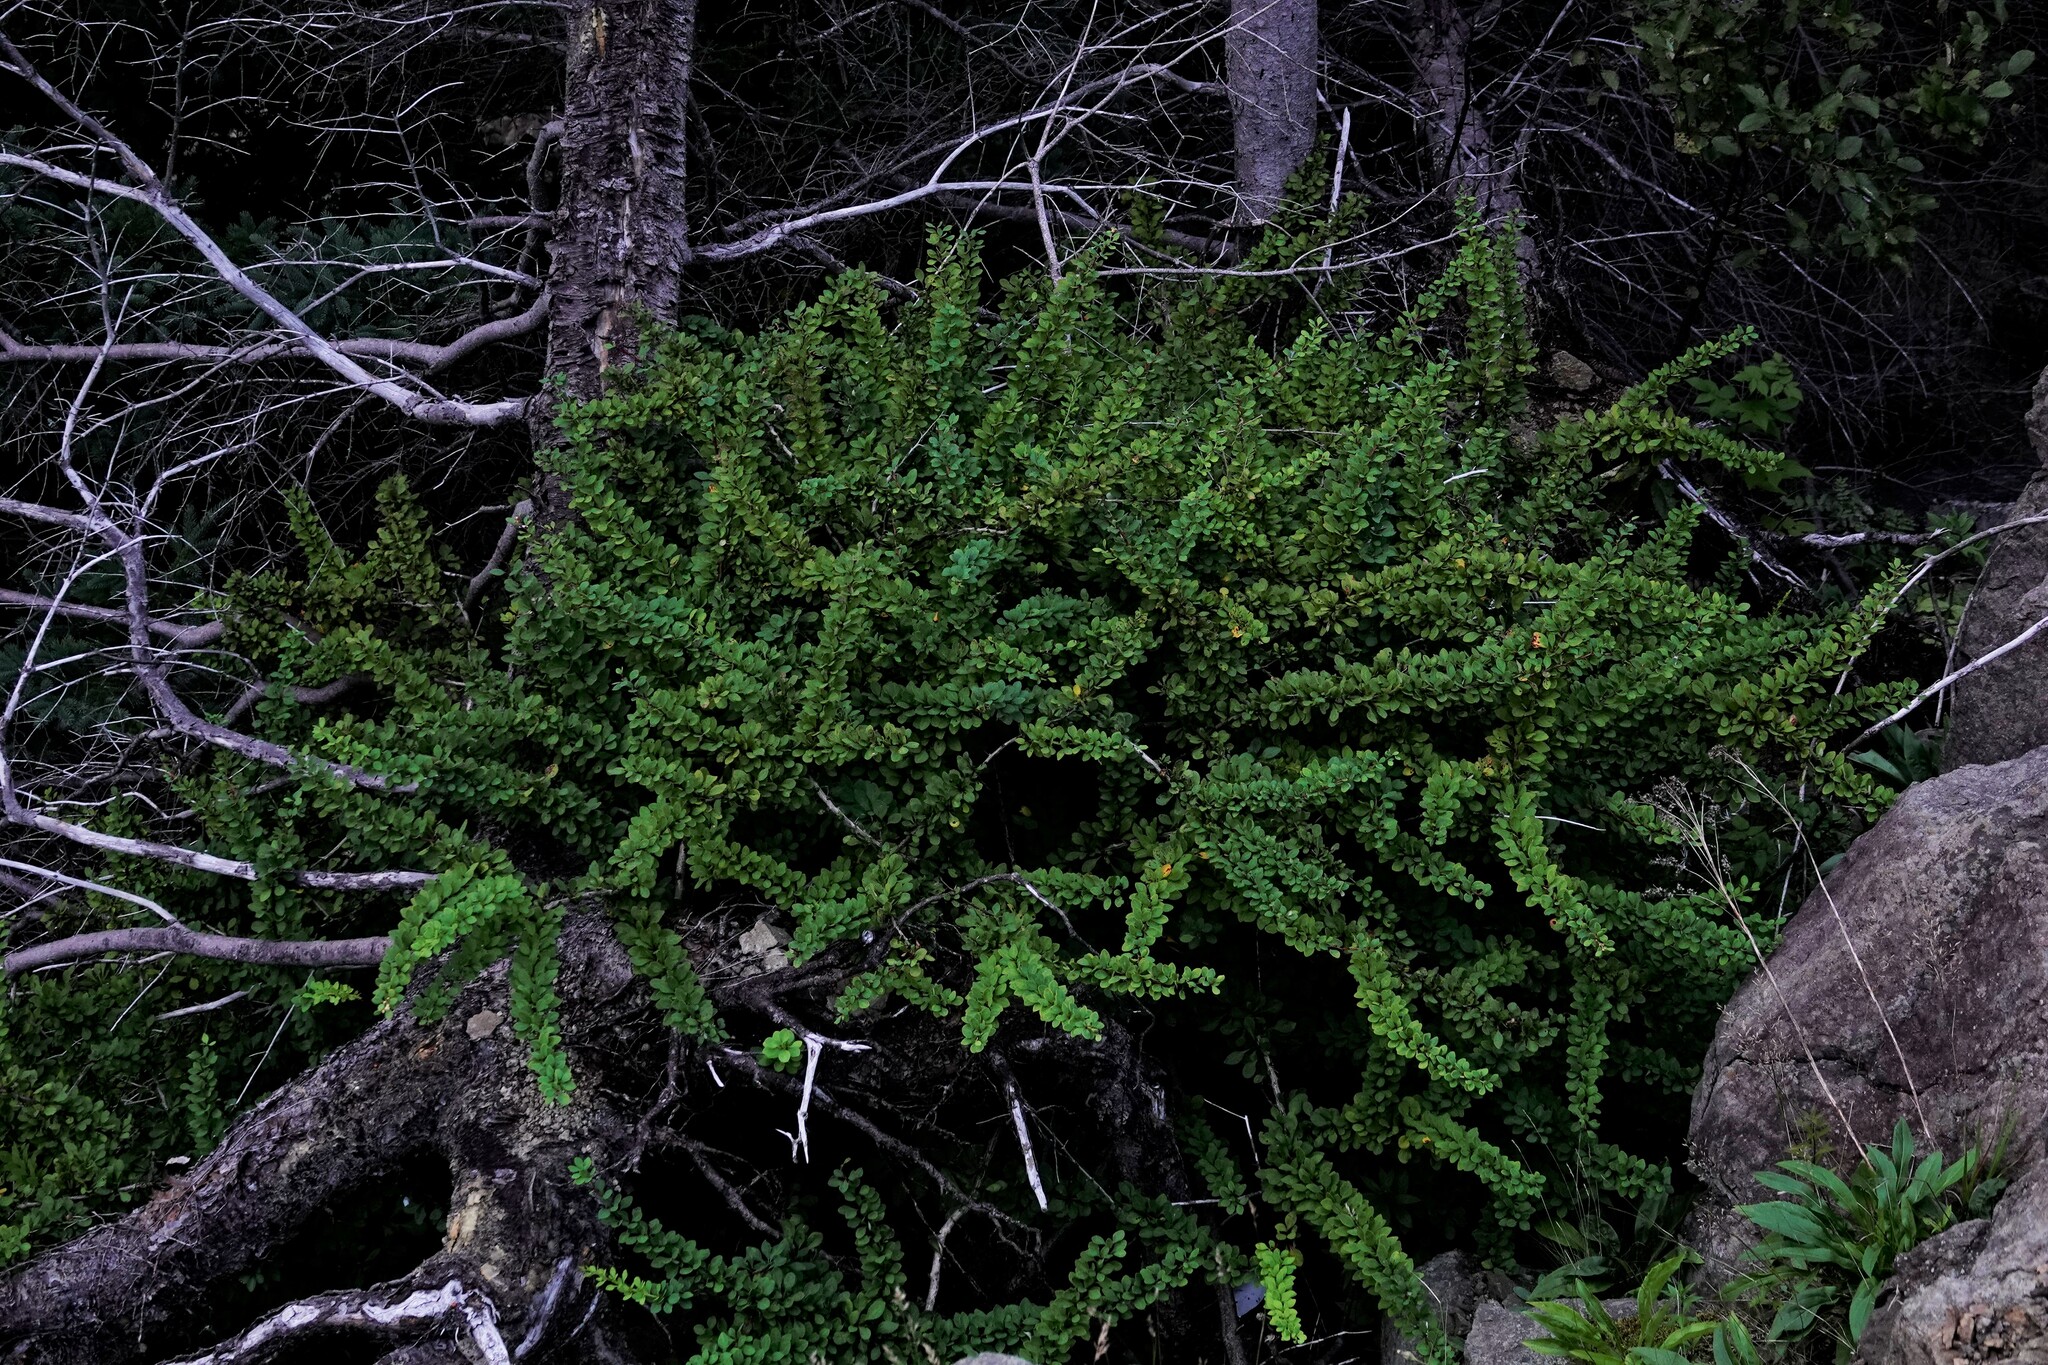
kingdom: Plantae
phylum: Tracheophyta
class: Magnoliopsida
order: Ranunculales
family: Berberidaceae
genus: Berberis
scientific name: Berberis thunbergii
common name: Japanese barberry
